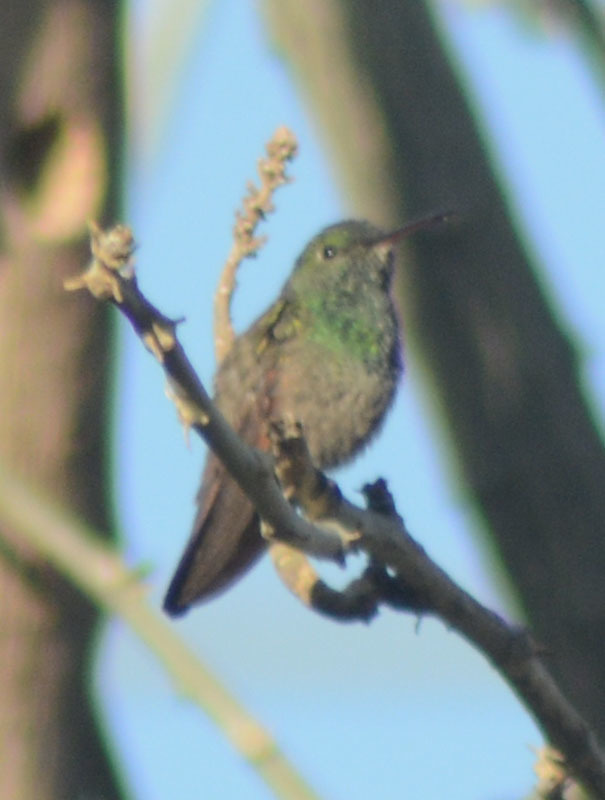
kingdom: Animalia
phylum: Chordata
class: Aves
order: Apodiformes
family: Trochilidae
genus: Saucerottia
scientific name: Saucerottia beryllina
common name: Berylline hummingbird
